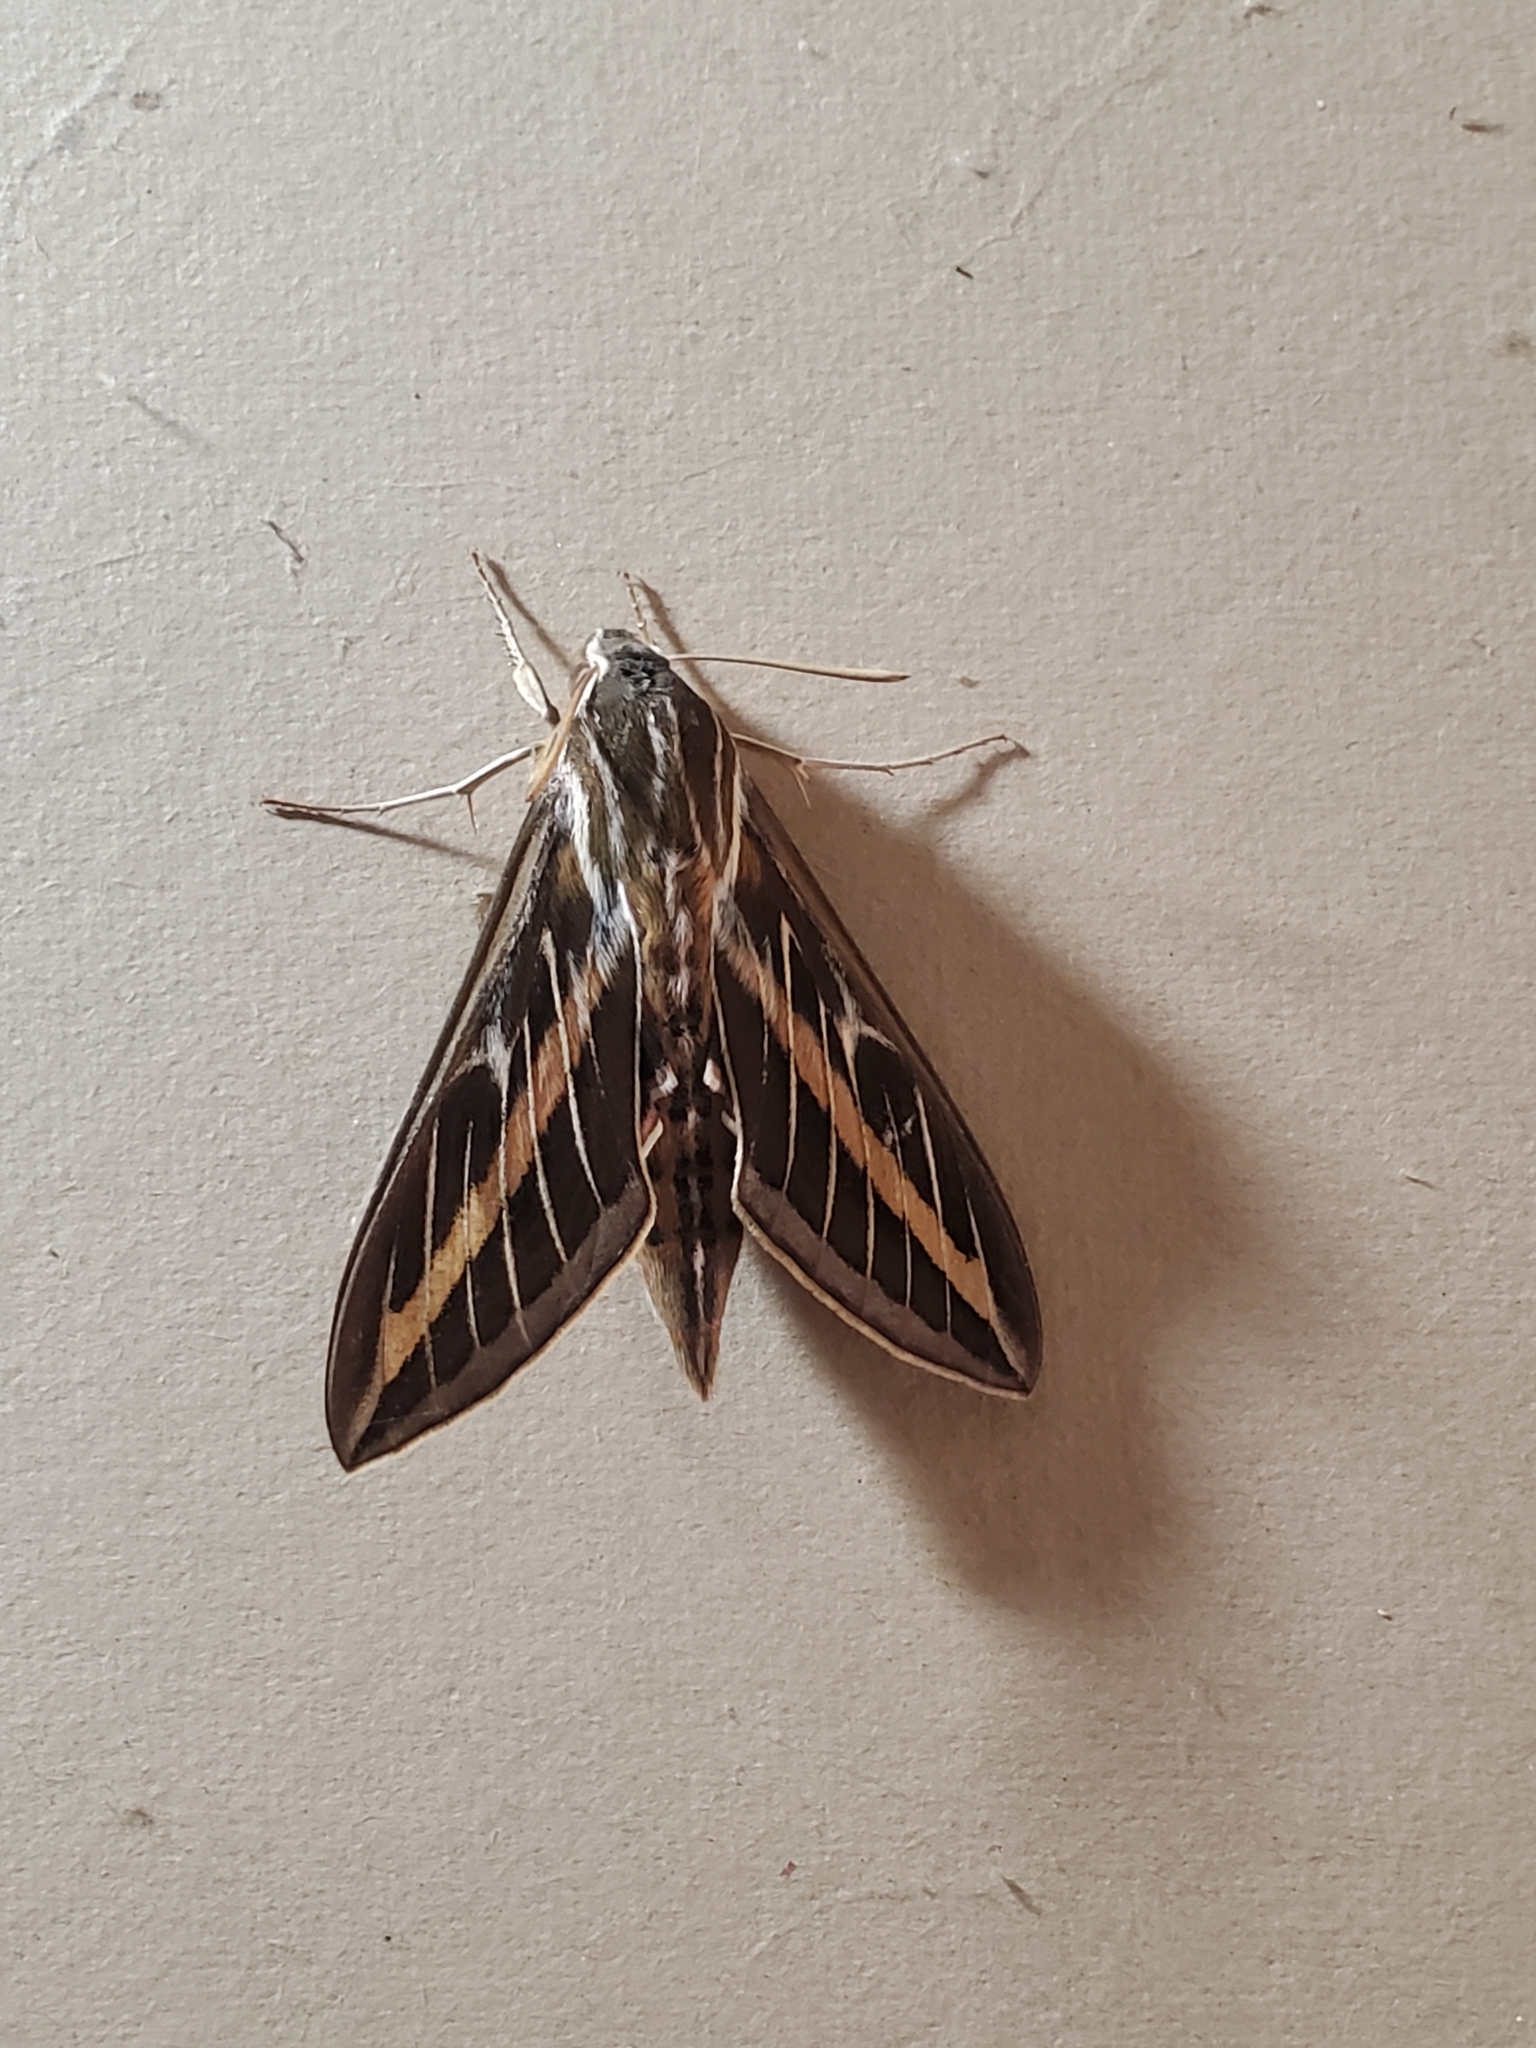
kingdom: Animalia
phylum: Arthropoda
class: Insecta
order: Lepidoptera
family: Sphingidae
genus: Hyles
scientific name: Hyles lineata
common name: White-lined sphinx
